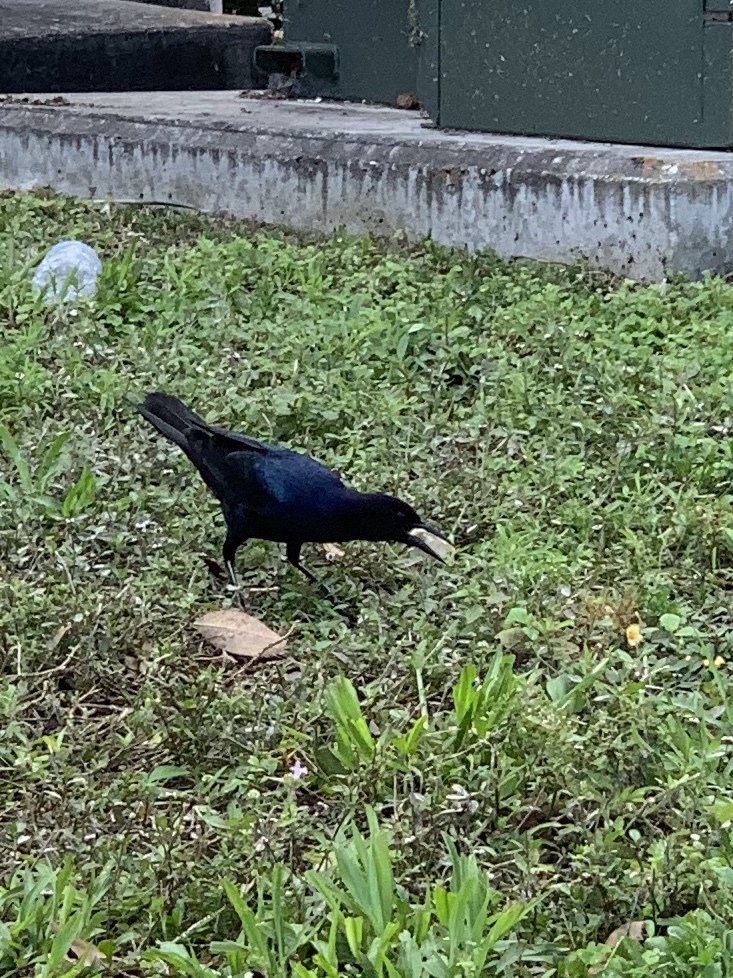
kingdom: Animalia
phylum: Chordata
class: Aves
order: Passeriformes
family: Icteridae
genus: Quiscalus
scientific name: Quiscalus major
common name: Boat-tailed grackle
